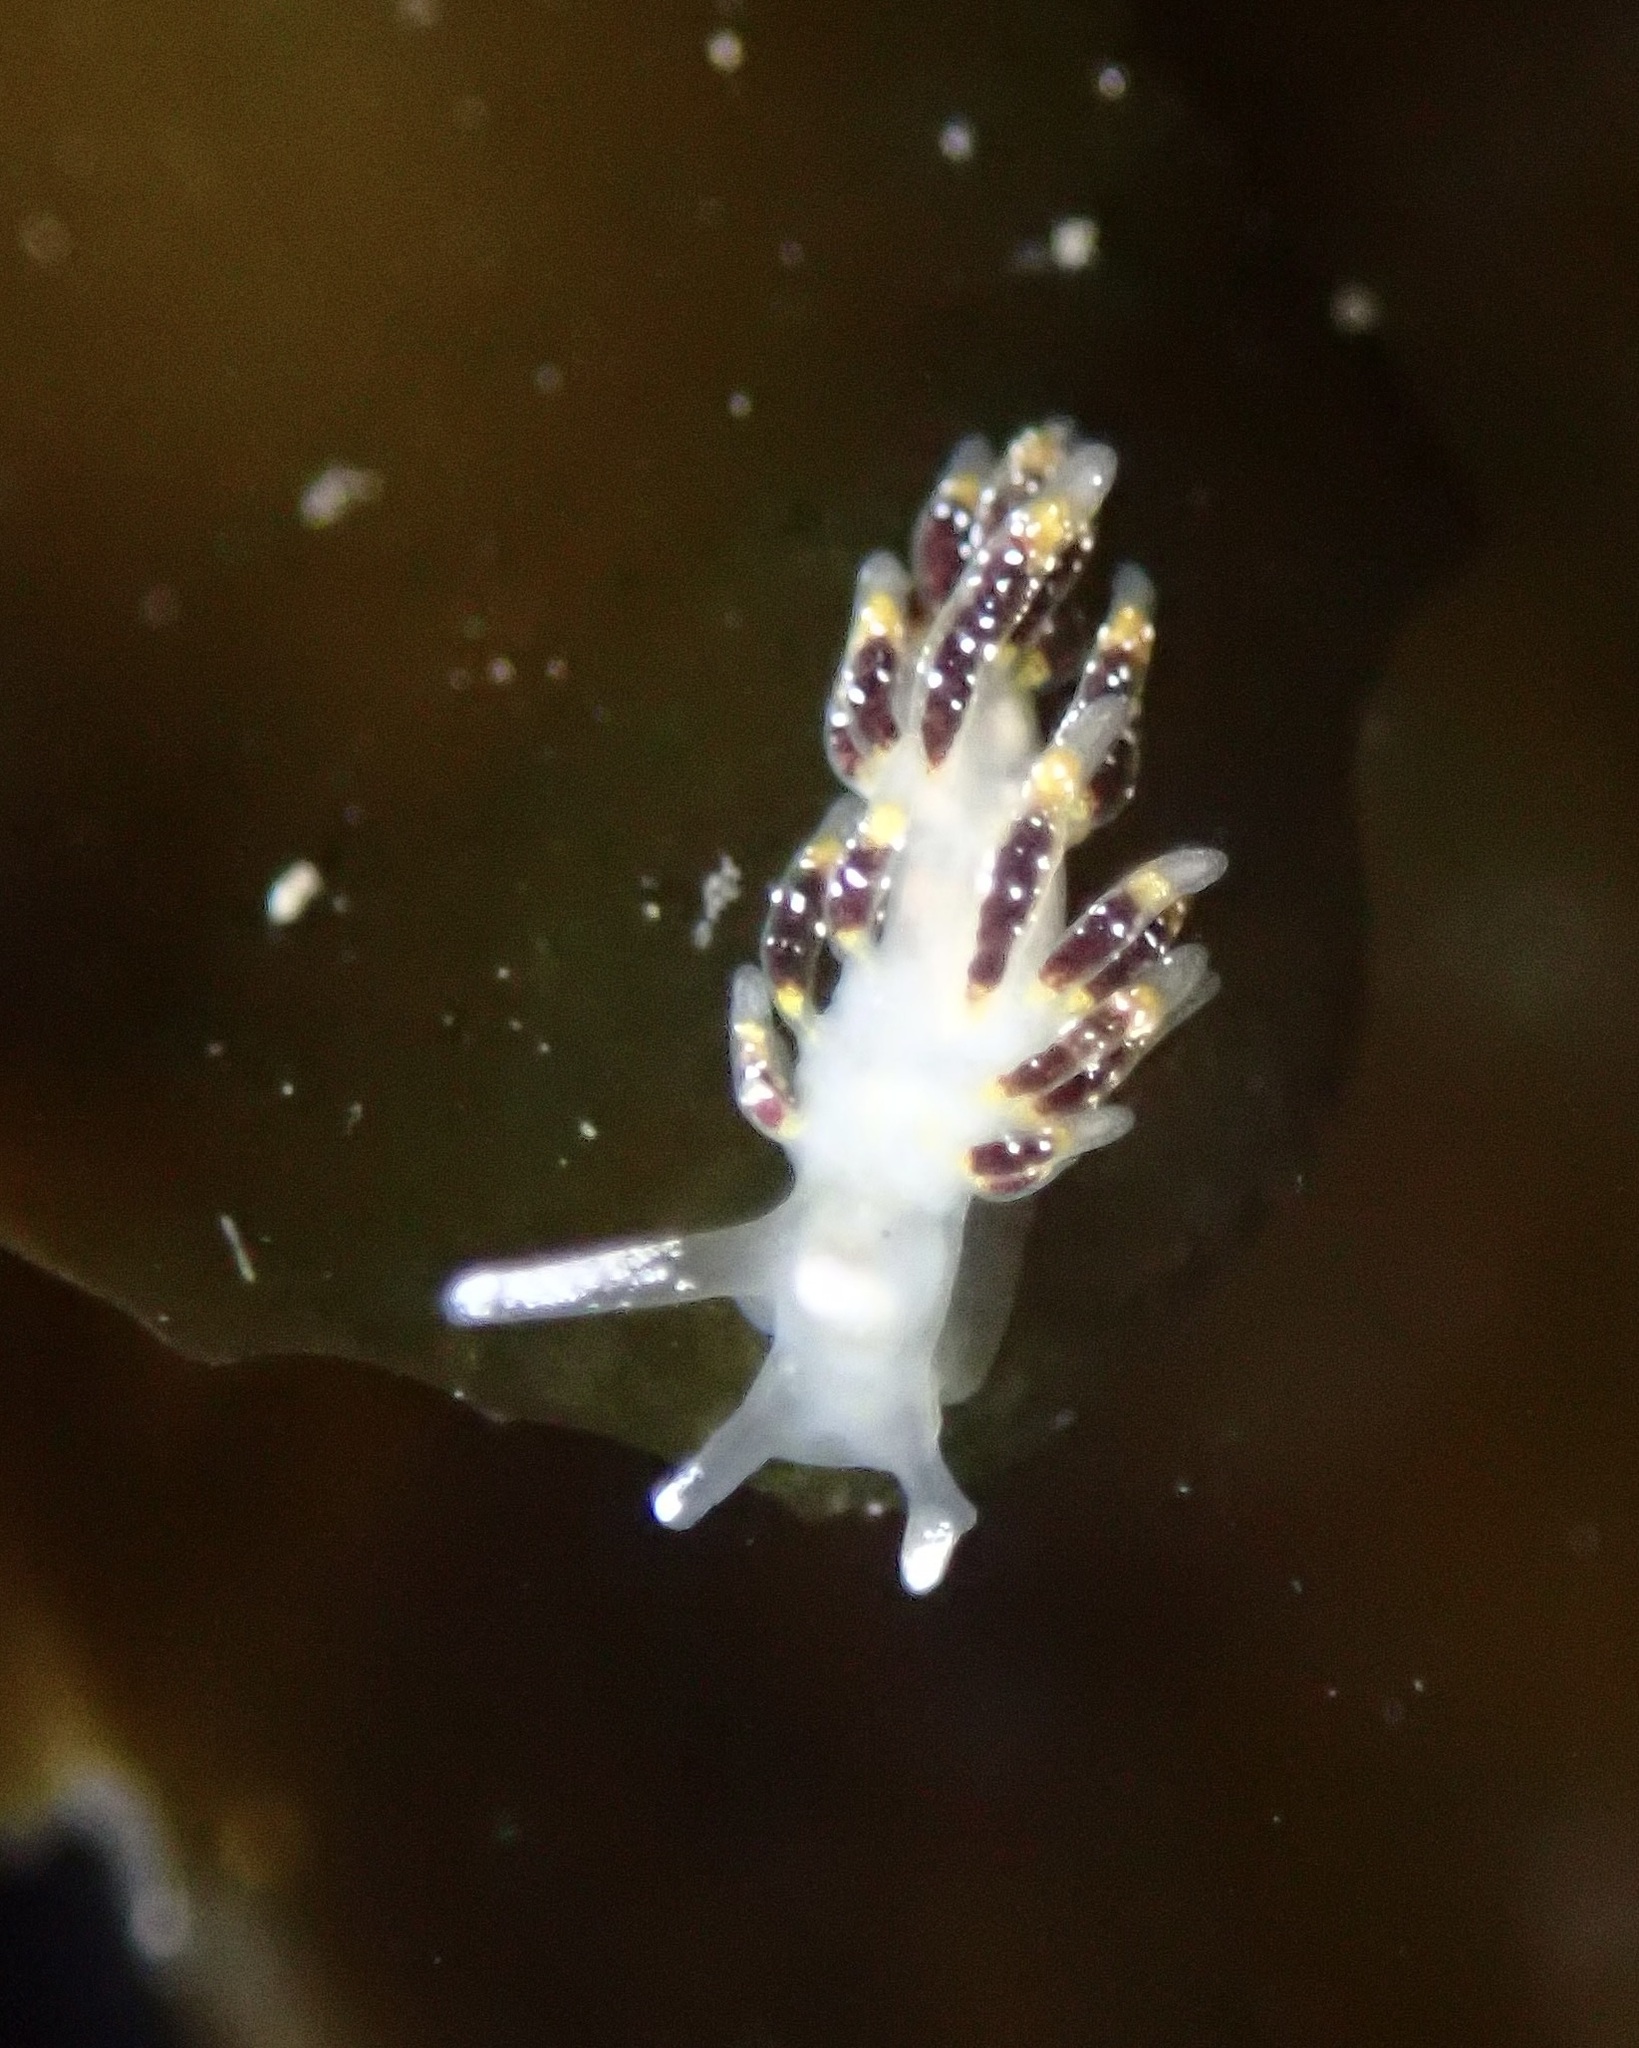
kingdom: Animalia
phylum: Mollusca
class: Gastropoda
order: Nudibranchia
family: Trinchesiidae
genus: Zelentia
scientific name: Zelentia fulgens
